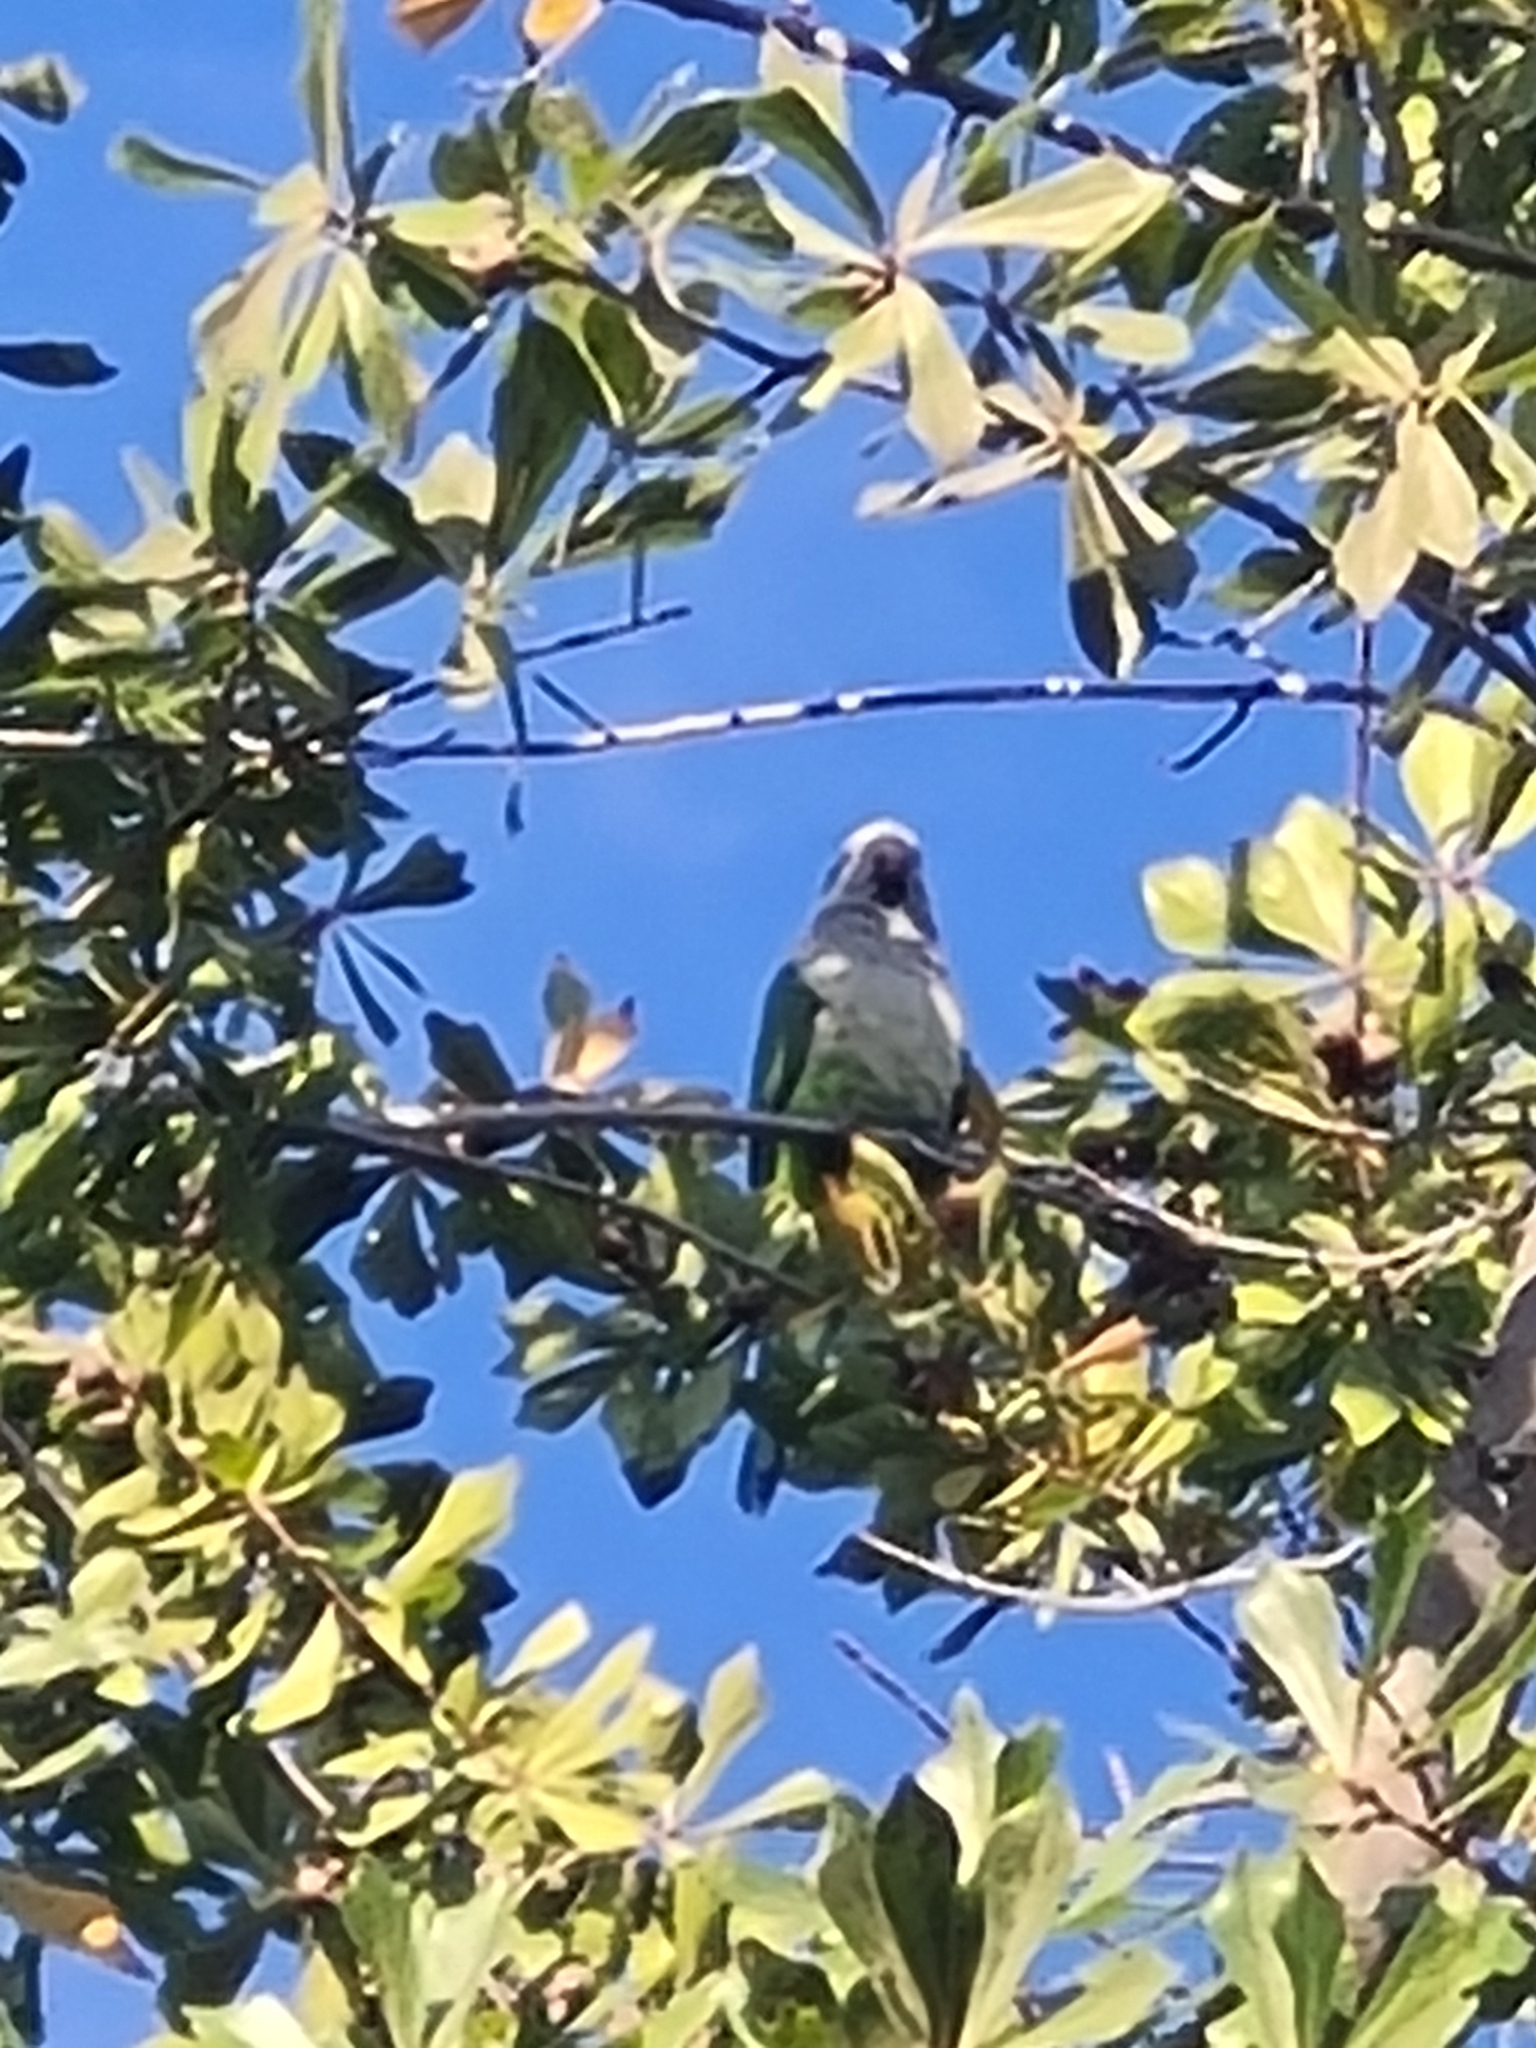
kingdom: Animalia
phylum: Chordata
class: Aves
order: Psittaciformes
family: Psittacidae
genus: Myiopsitta
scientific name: Myiopsitta monachus
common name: Monk parakeet
